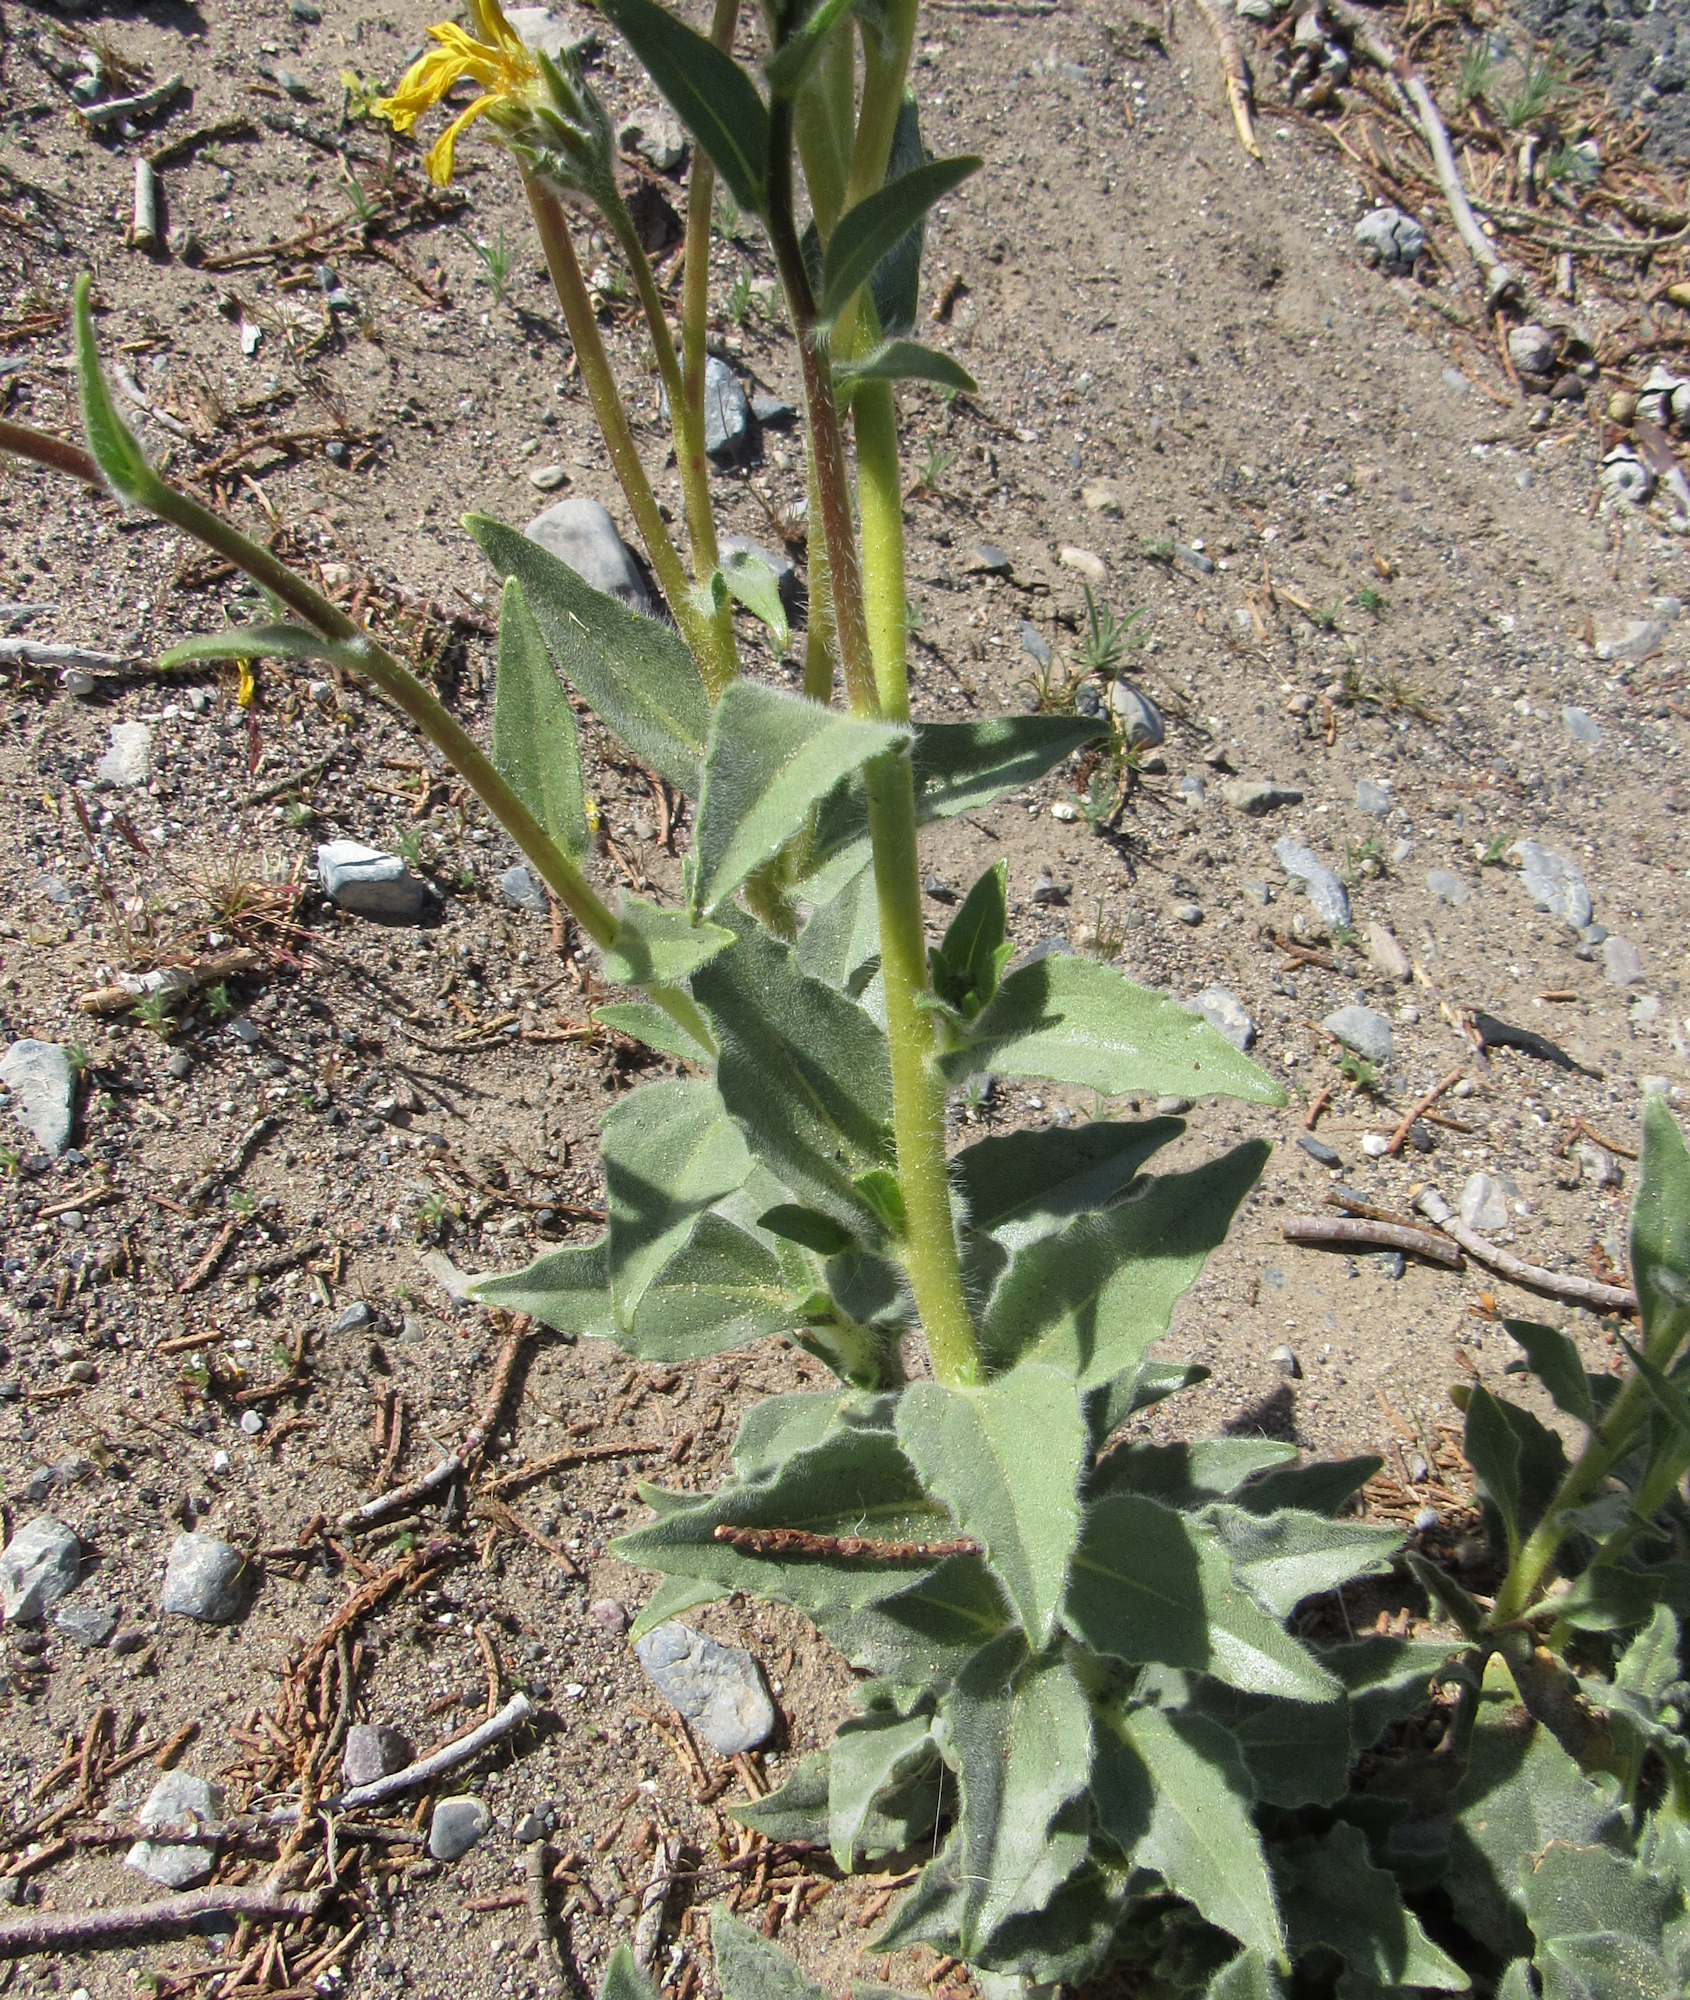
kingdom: Plantae
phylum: Tracheophyta
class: Magnoliopsida
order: Asterales
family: Asteraceae
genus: Geraea
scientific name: Geraea canescens
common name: Desert-gold
